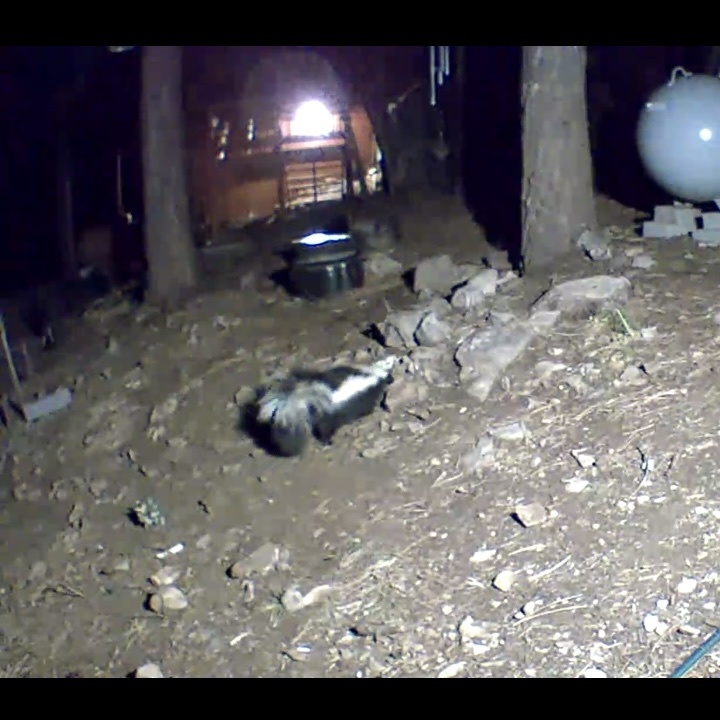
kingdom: Animalia
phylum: Chordata
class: Mammalia
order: Carnivora
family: Mephitidae
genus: Mephitis
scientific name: Mephitis mephitis
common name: Striped skunk
